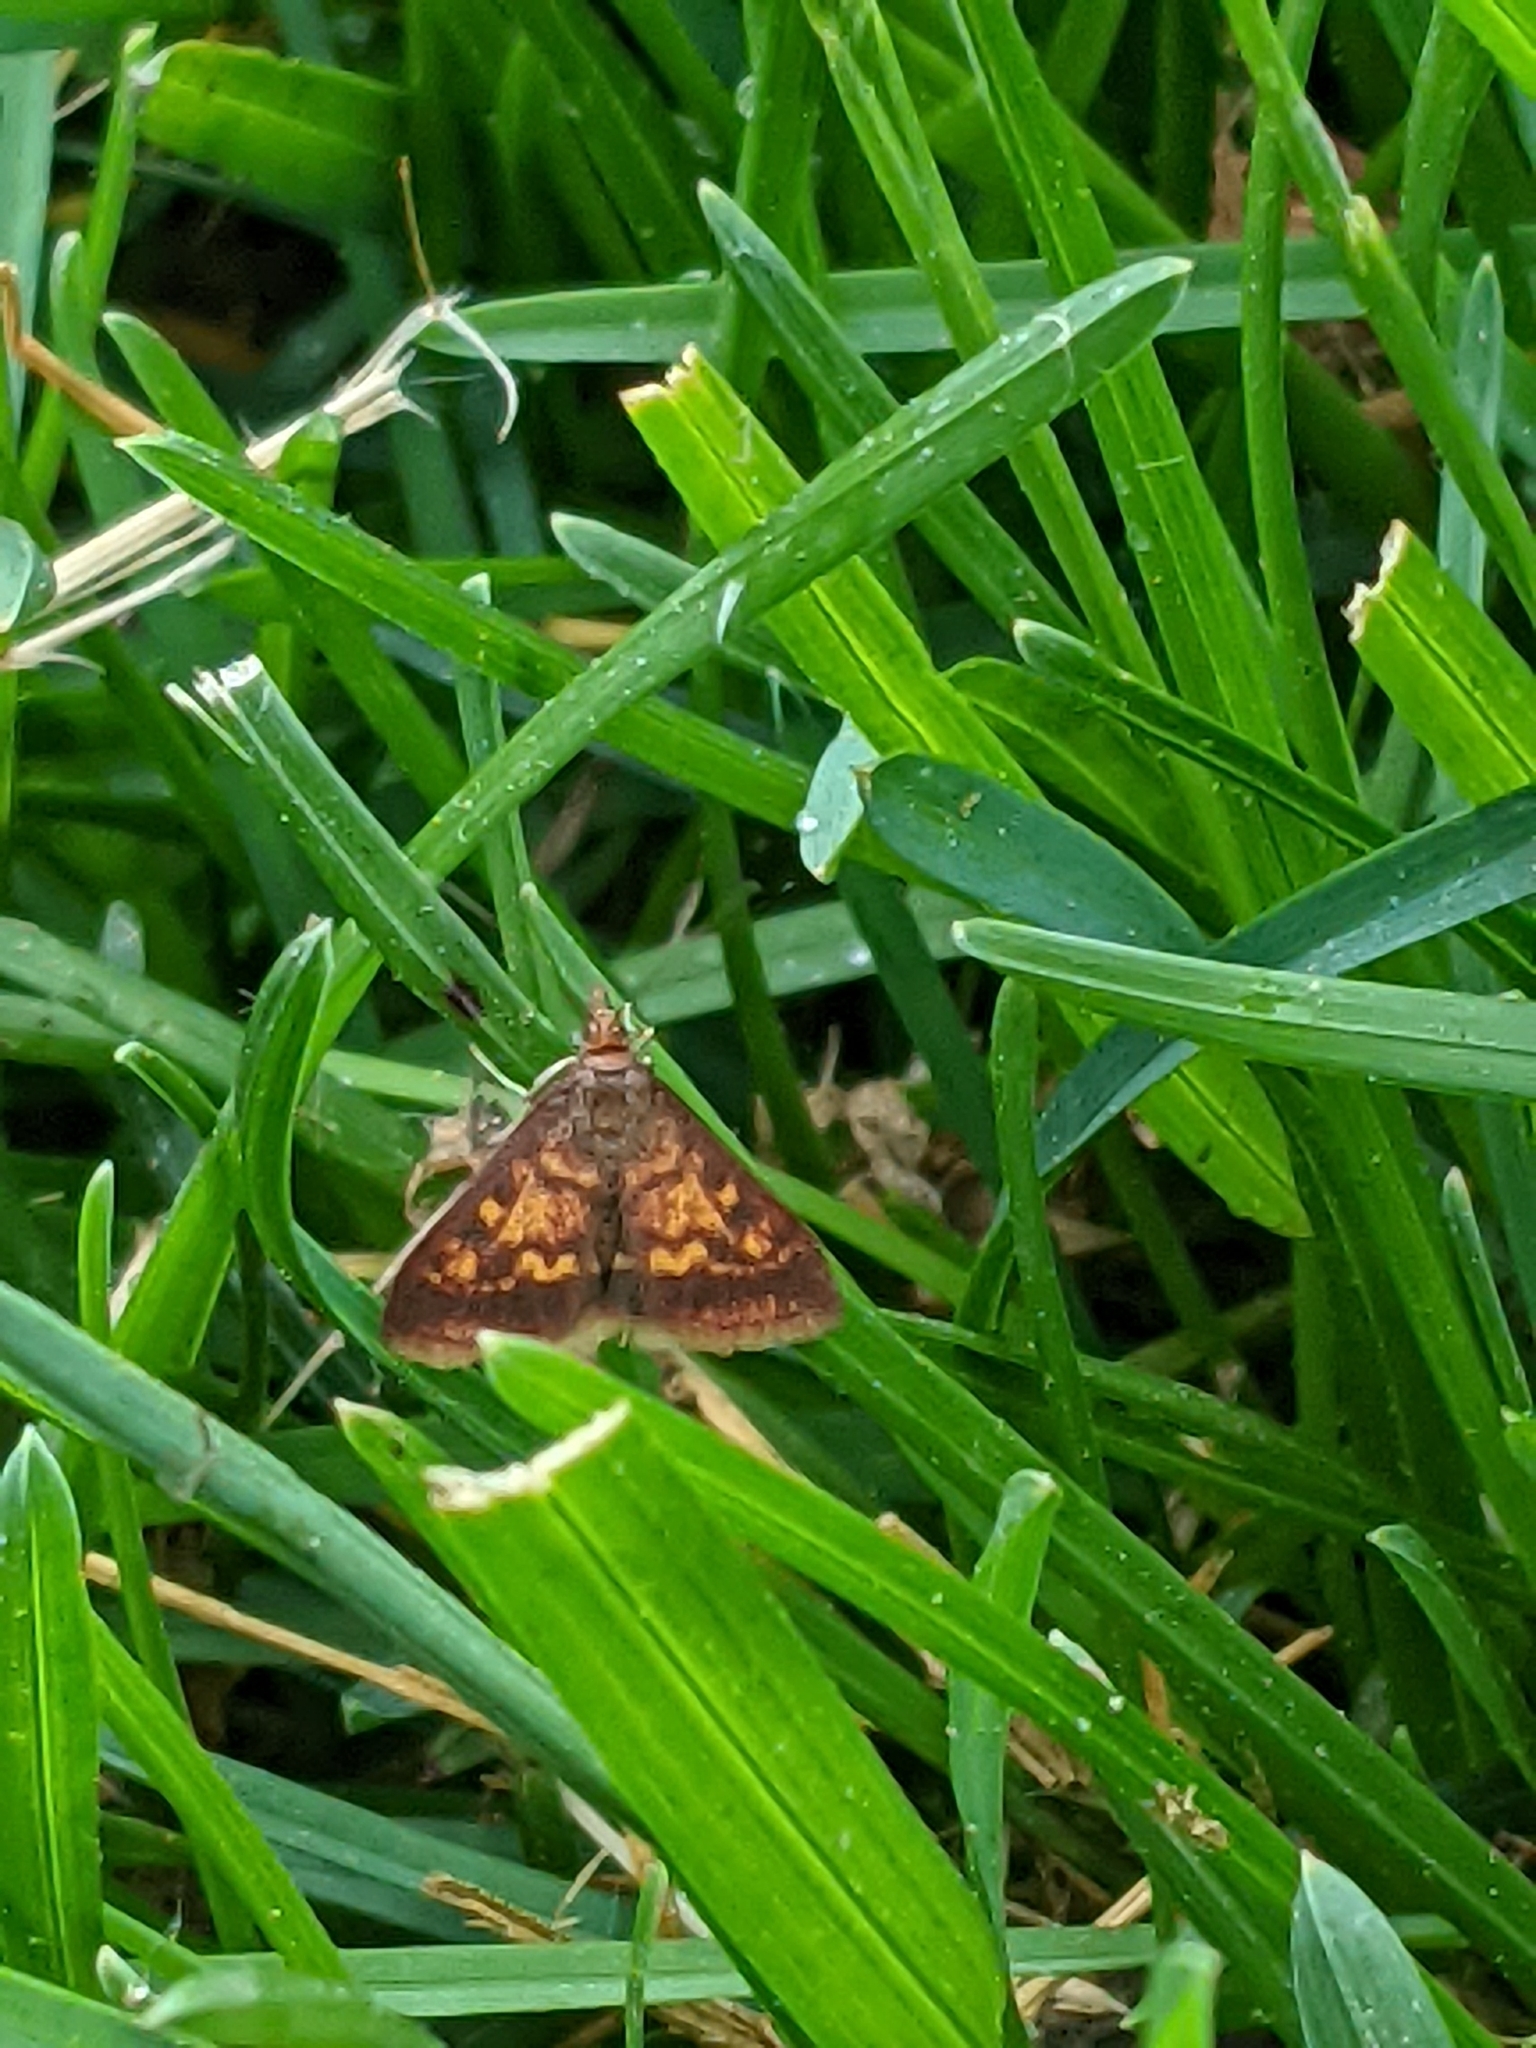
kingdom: Animalia
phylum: Arthropoda
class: Insecta
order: Lepidoptera
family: Crambidae
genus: Pyrausta
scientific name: Pyrausta acrionalis
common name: Mint-loving pyrausta moth
